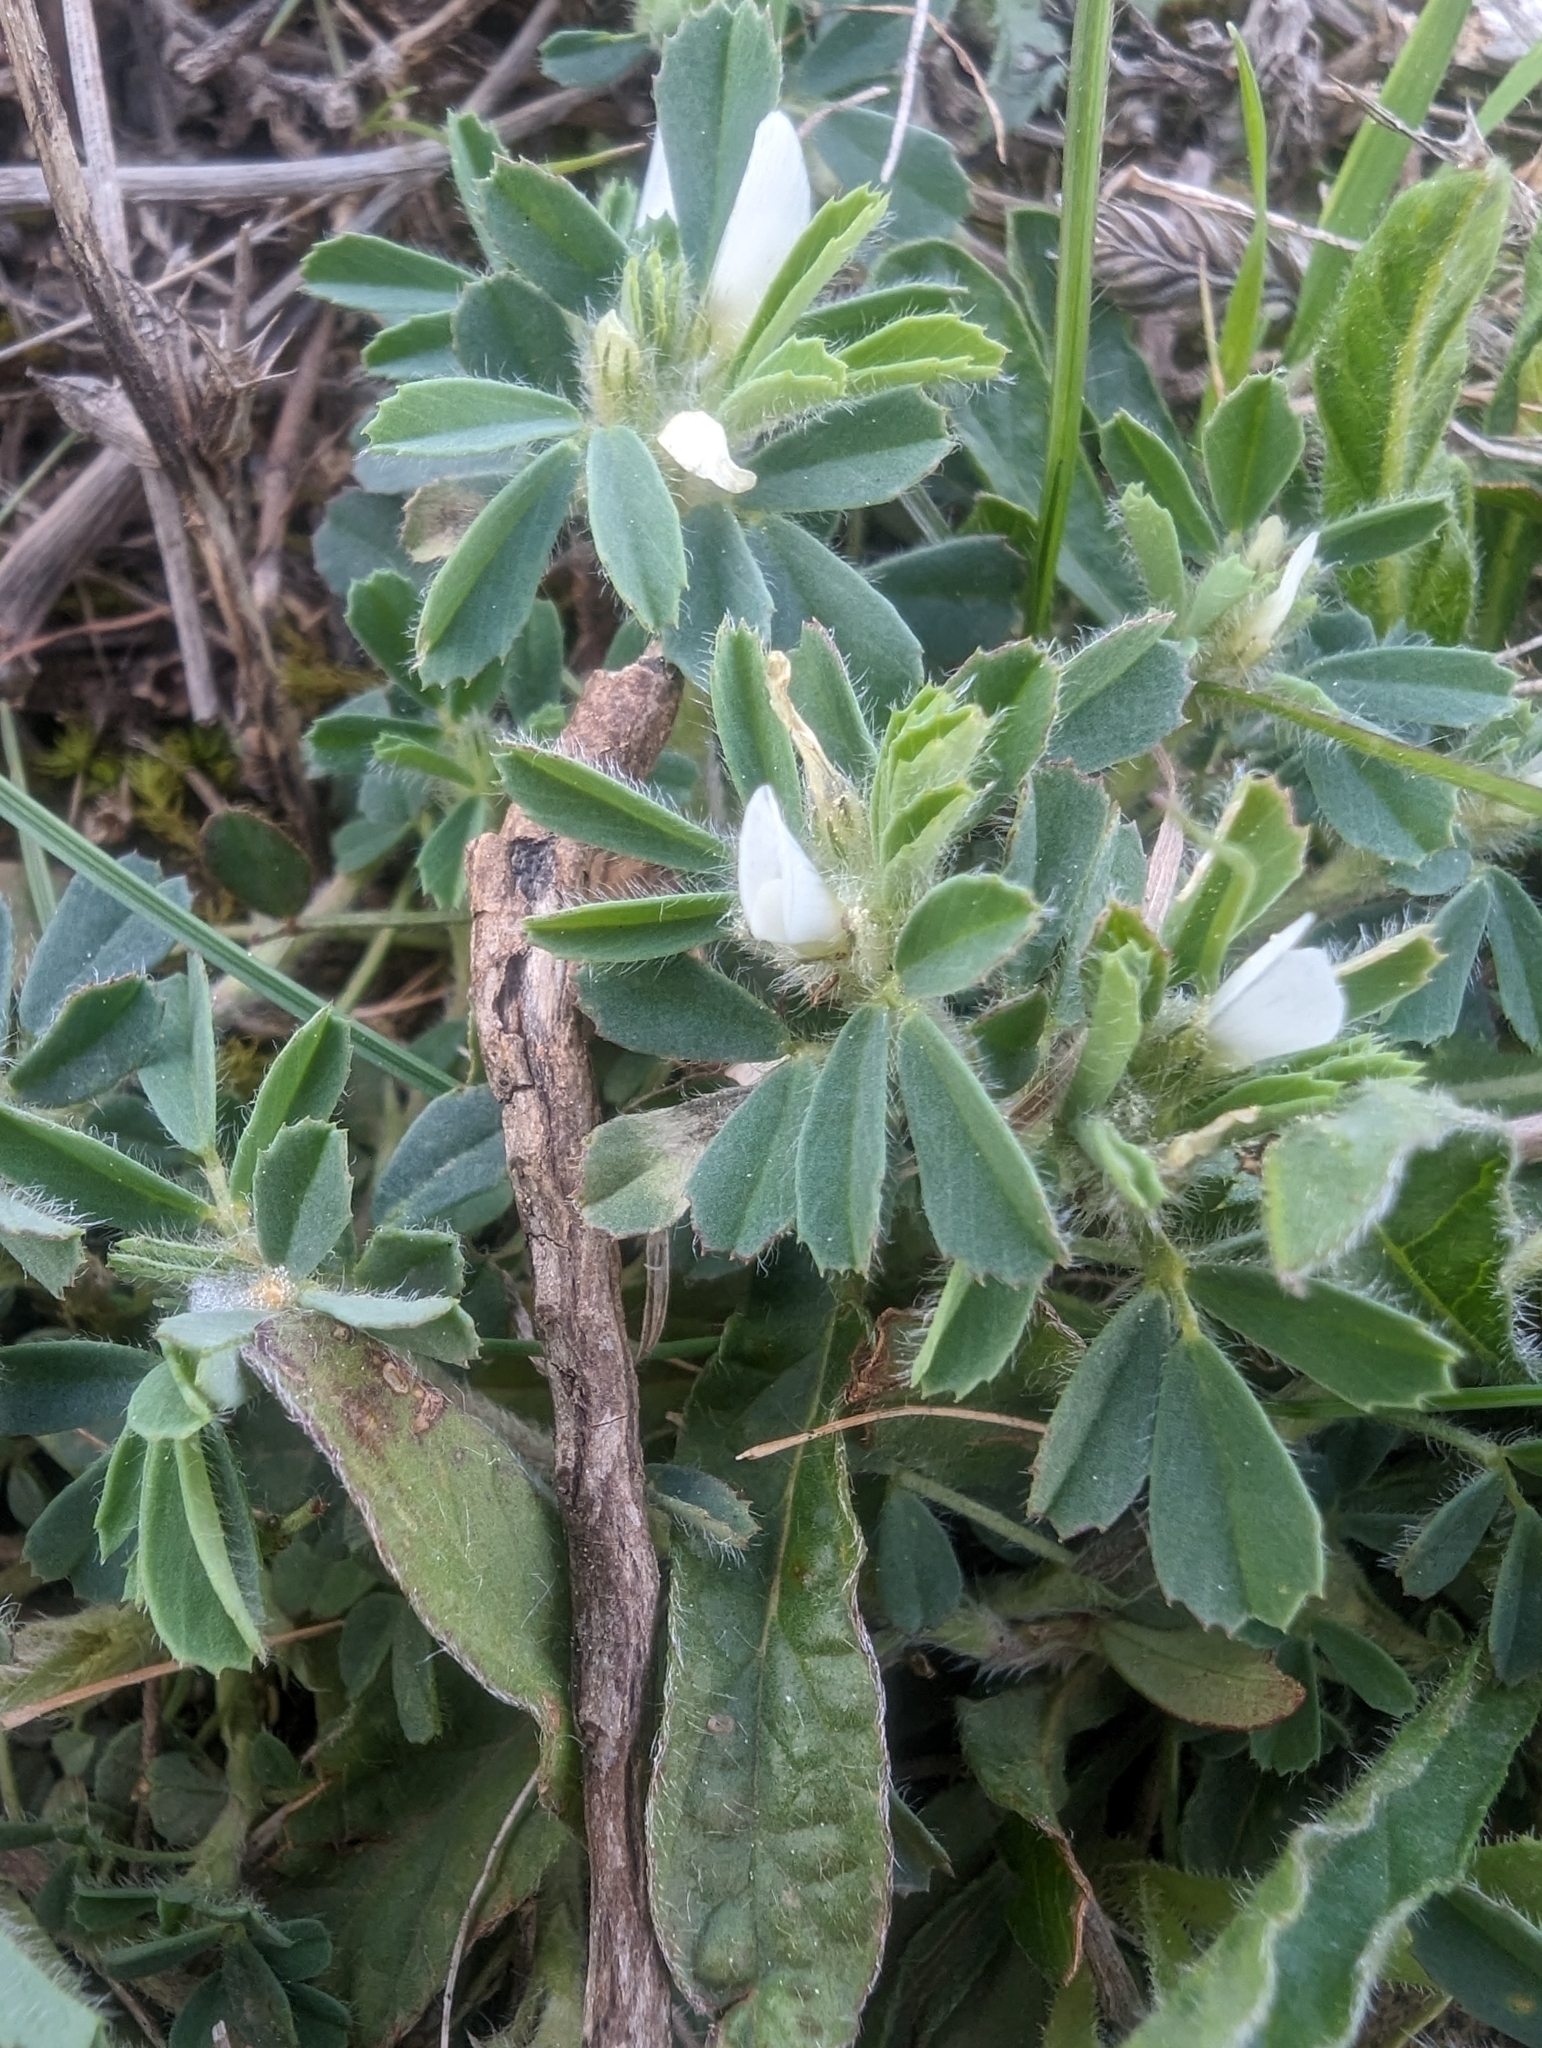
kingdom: Plantae
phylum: Tracheophyta
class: Magnoliopsida
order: Fabales
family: Fabaceae
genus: Trigonella
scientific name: Trigonella gladiata
